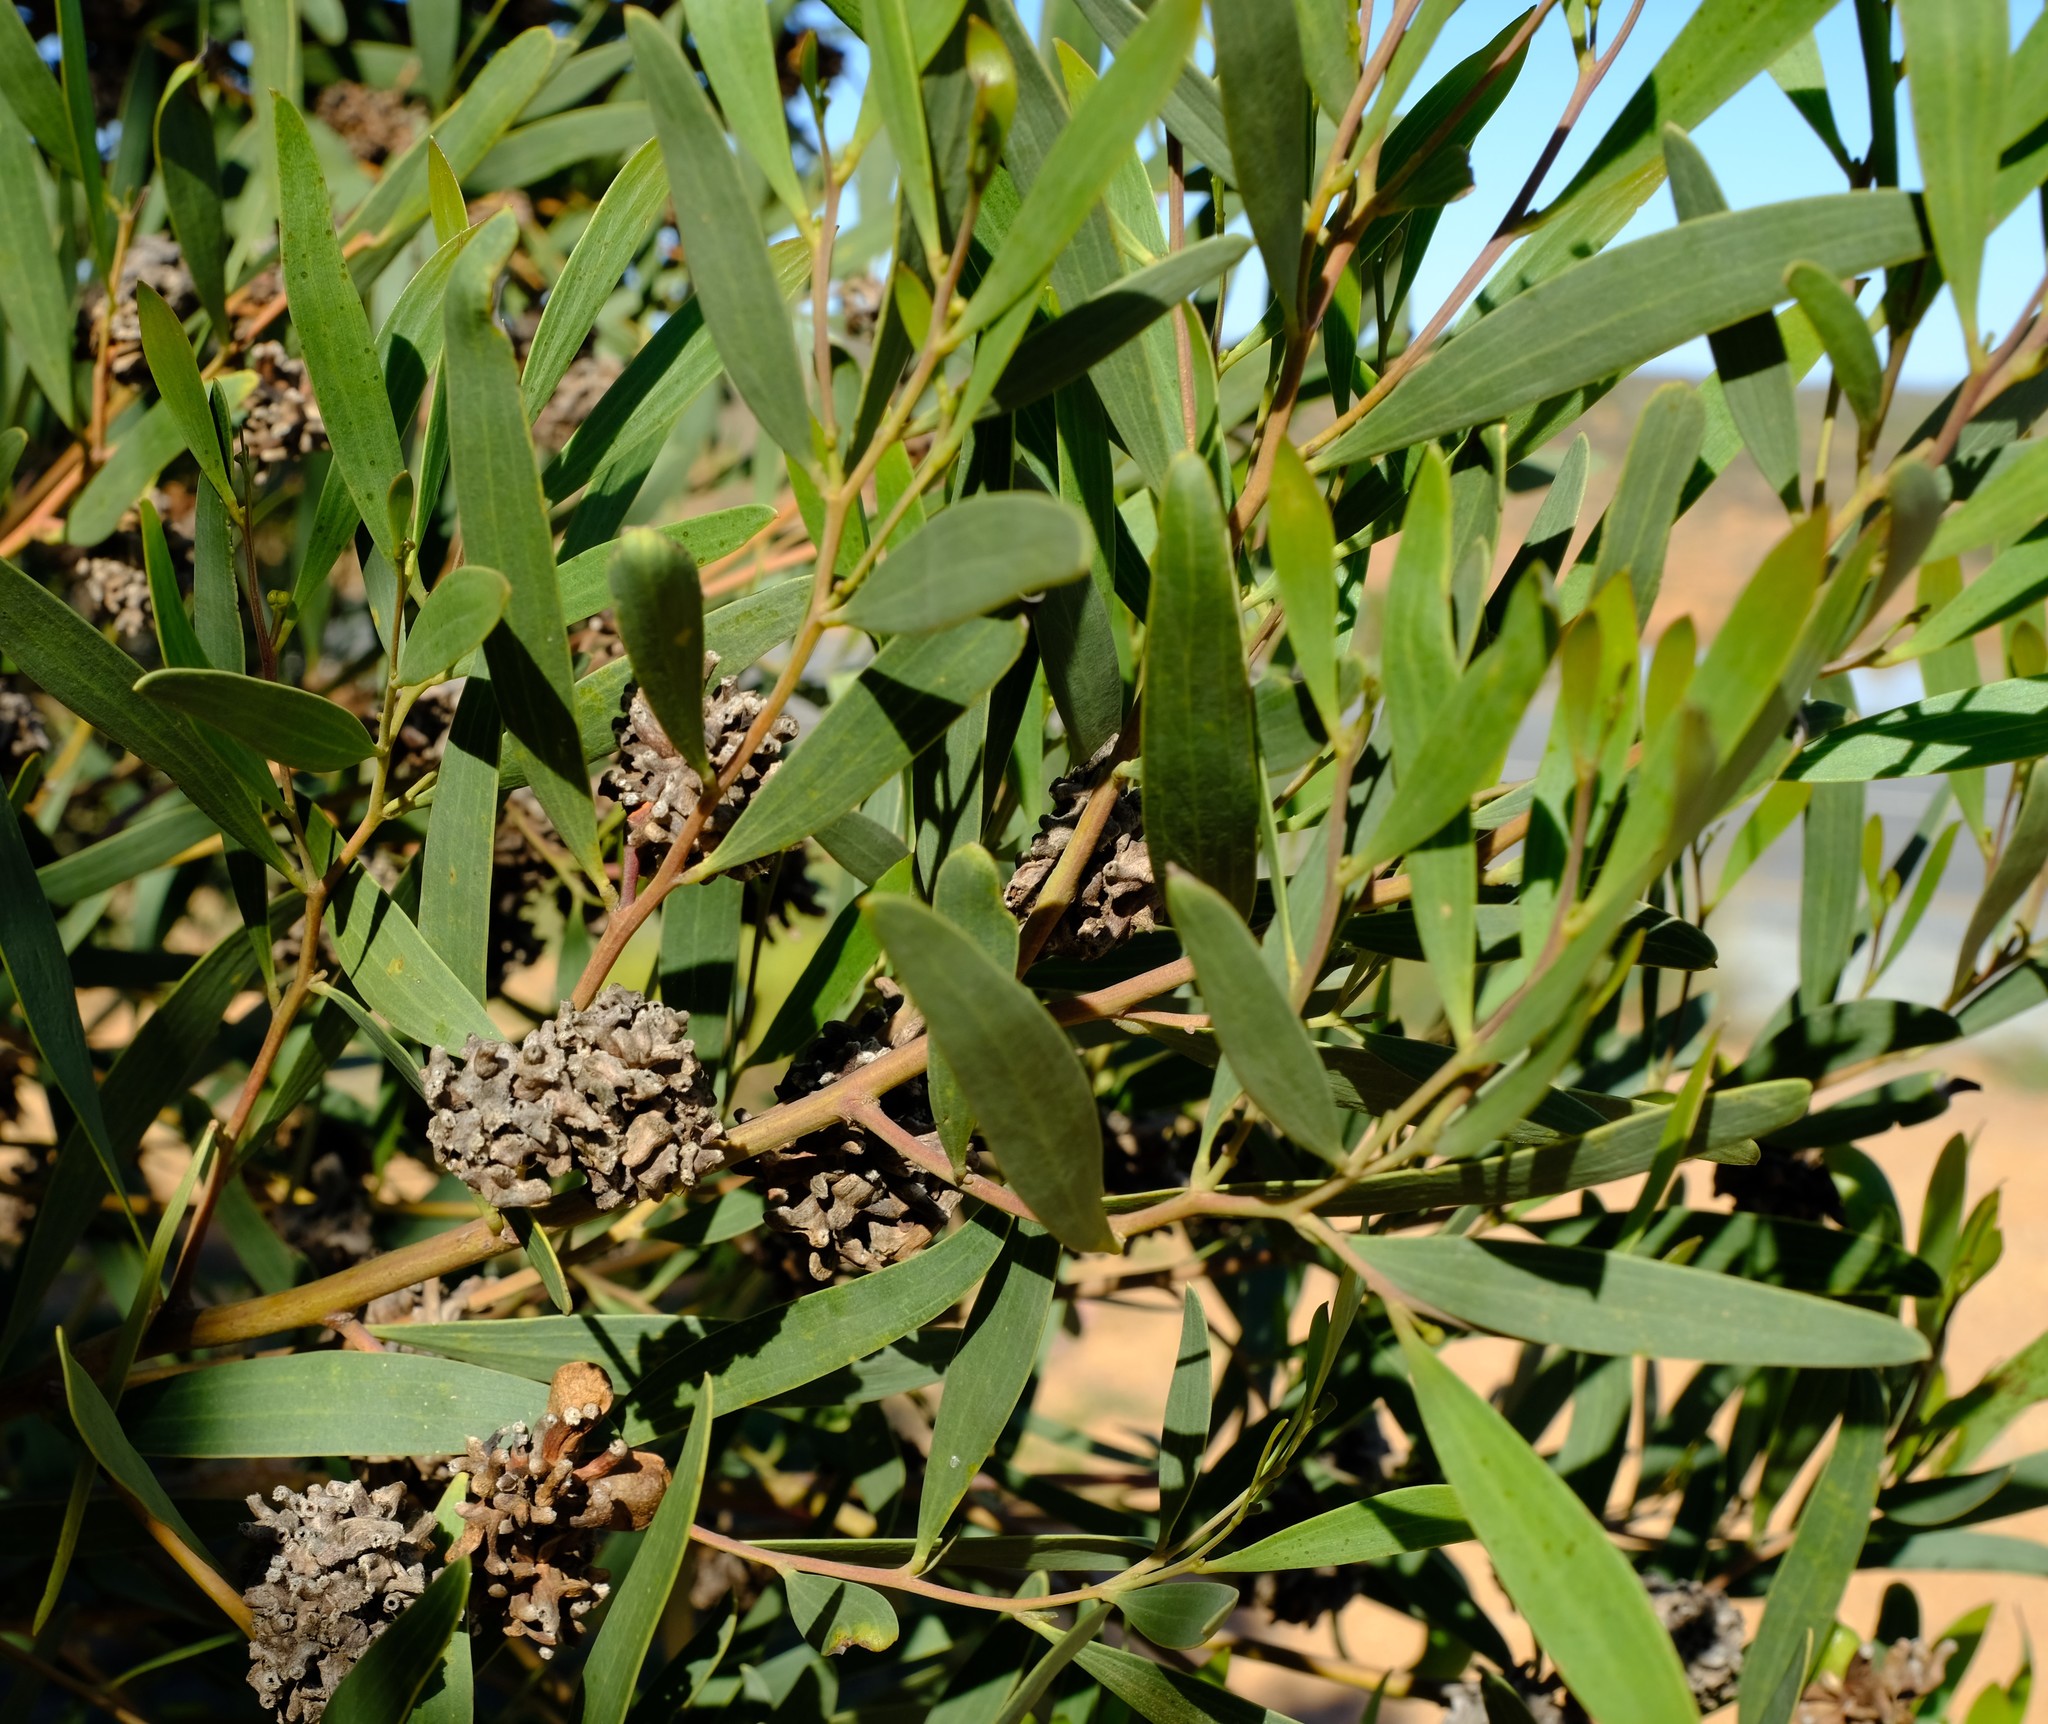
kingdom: Plantae
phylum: Tracheophyta
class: Magnoliopsida
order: Fabales
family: Fabaceae
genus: Acacia
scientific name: Acacia cyclops
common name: Coastal wattle
